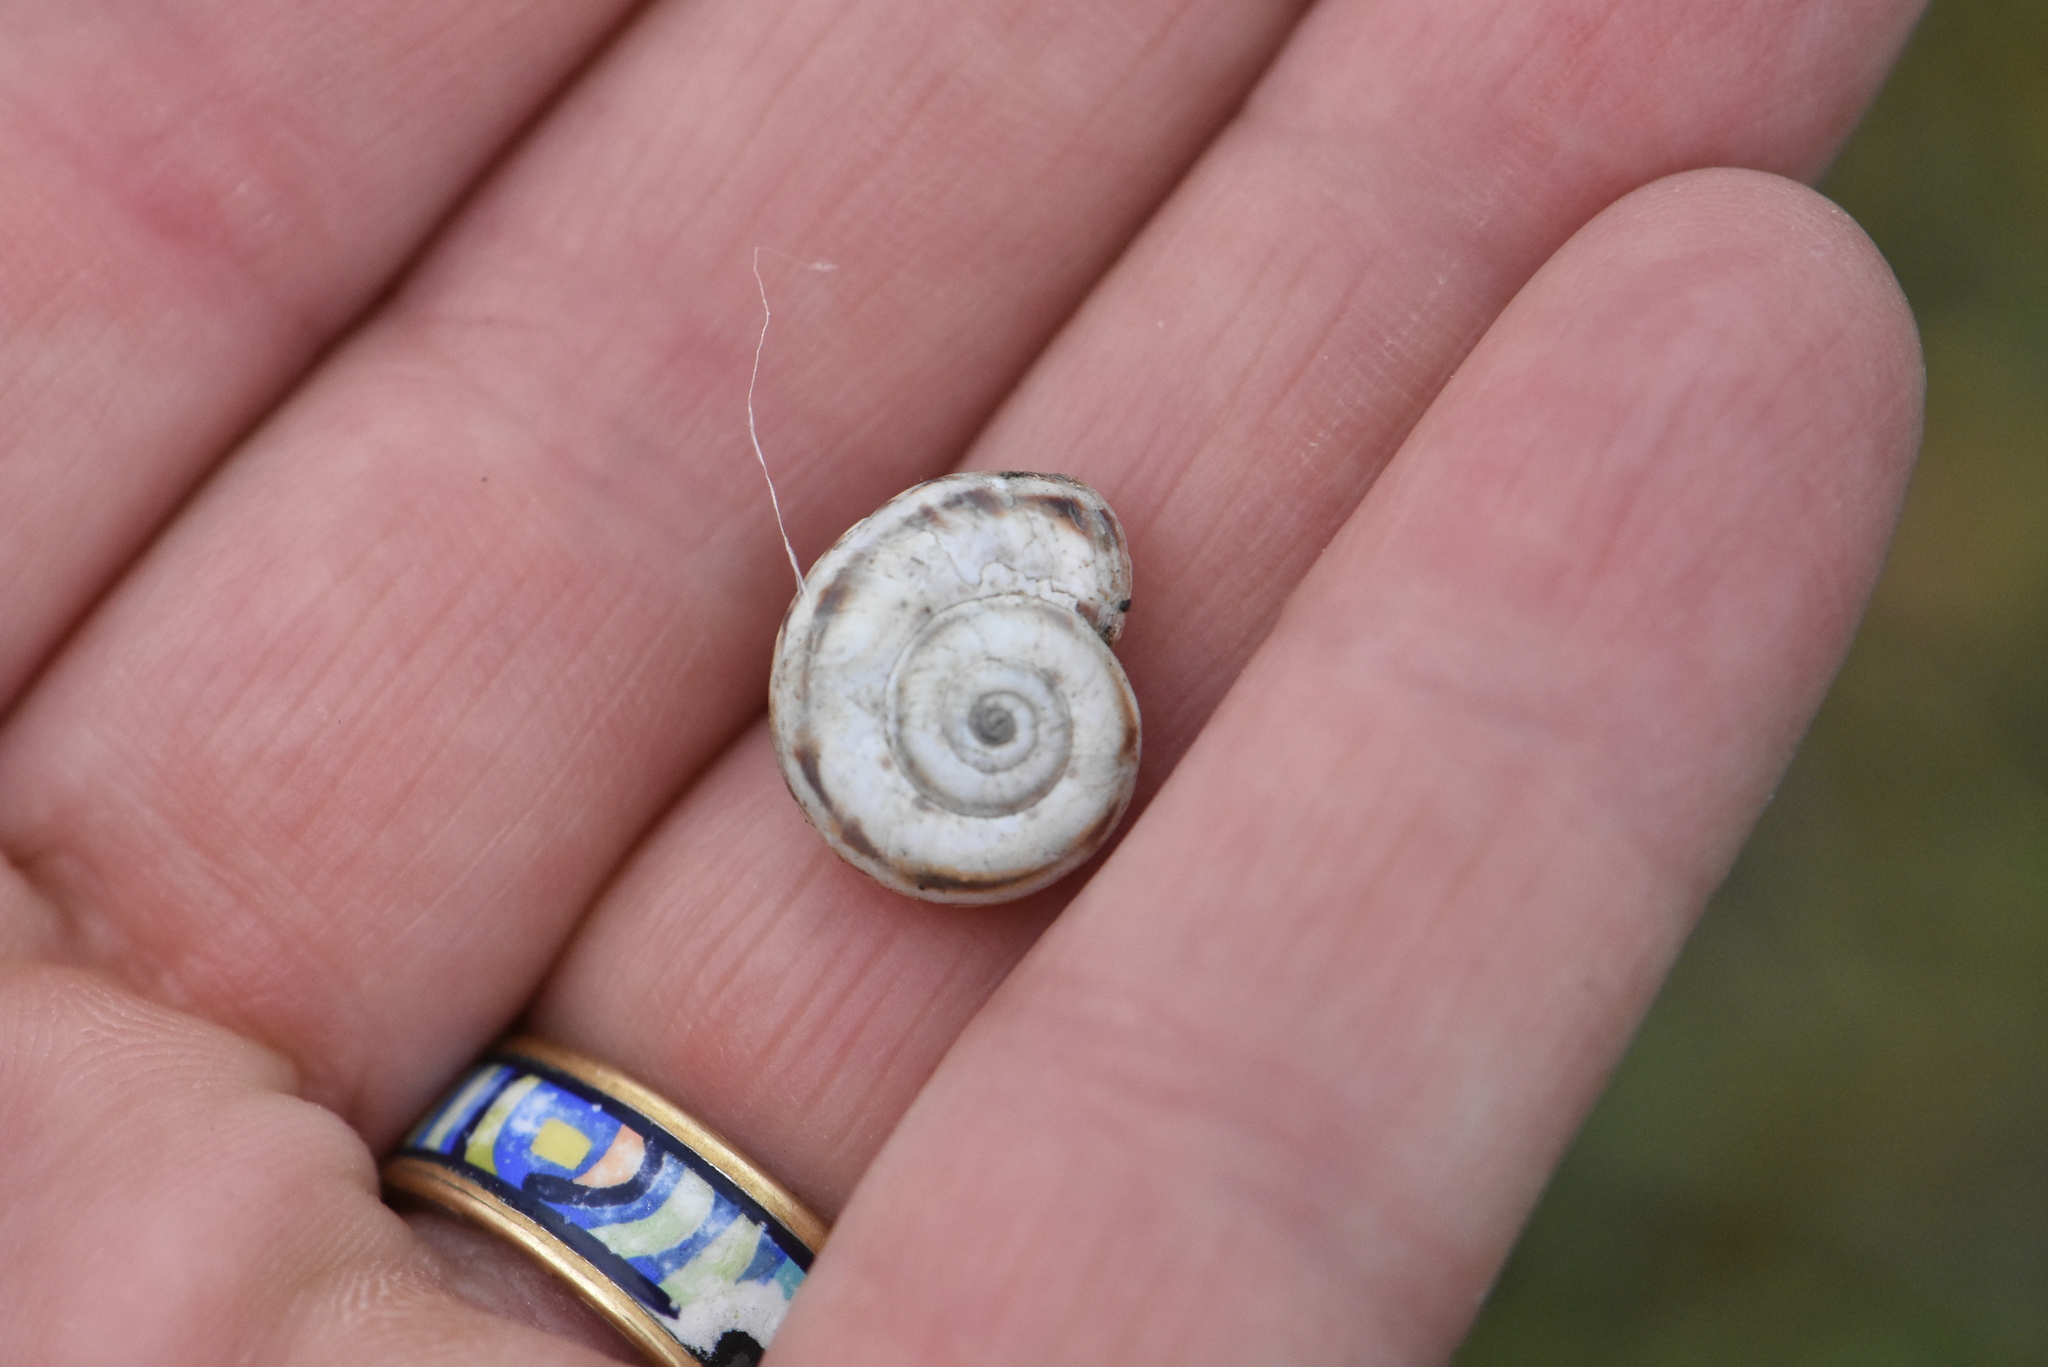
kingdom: Animalia
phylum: Mollusca
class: Gastropoda
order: Stylommatophora
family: Geomitridae
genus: Xeropicta
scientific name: Xeropicta derbentina
